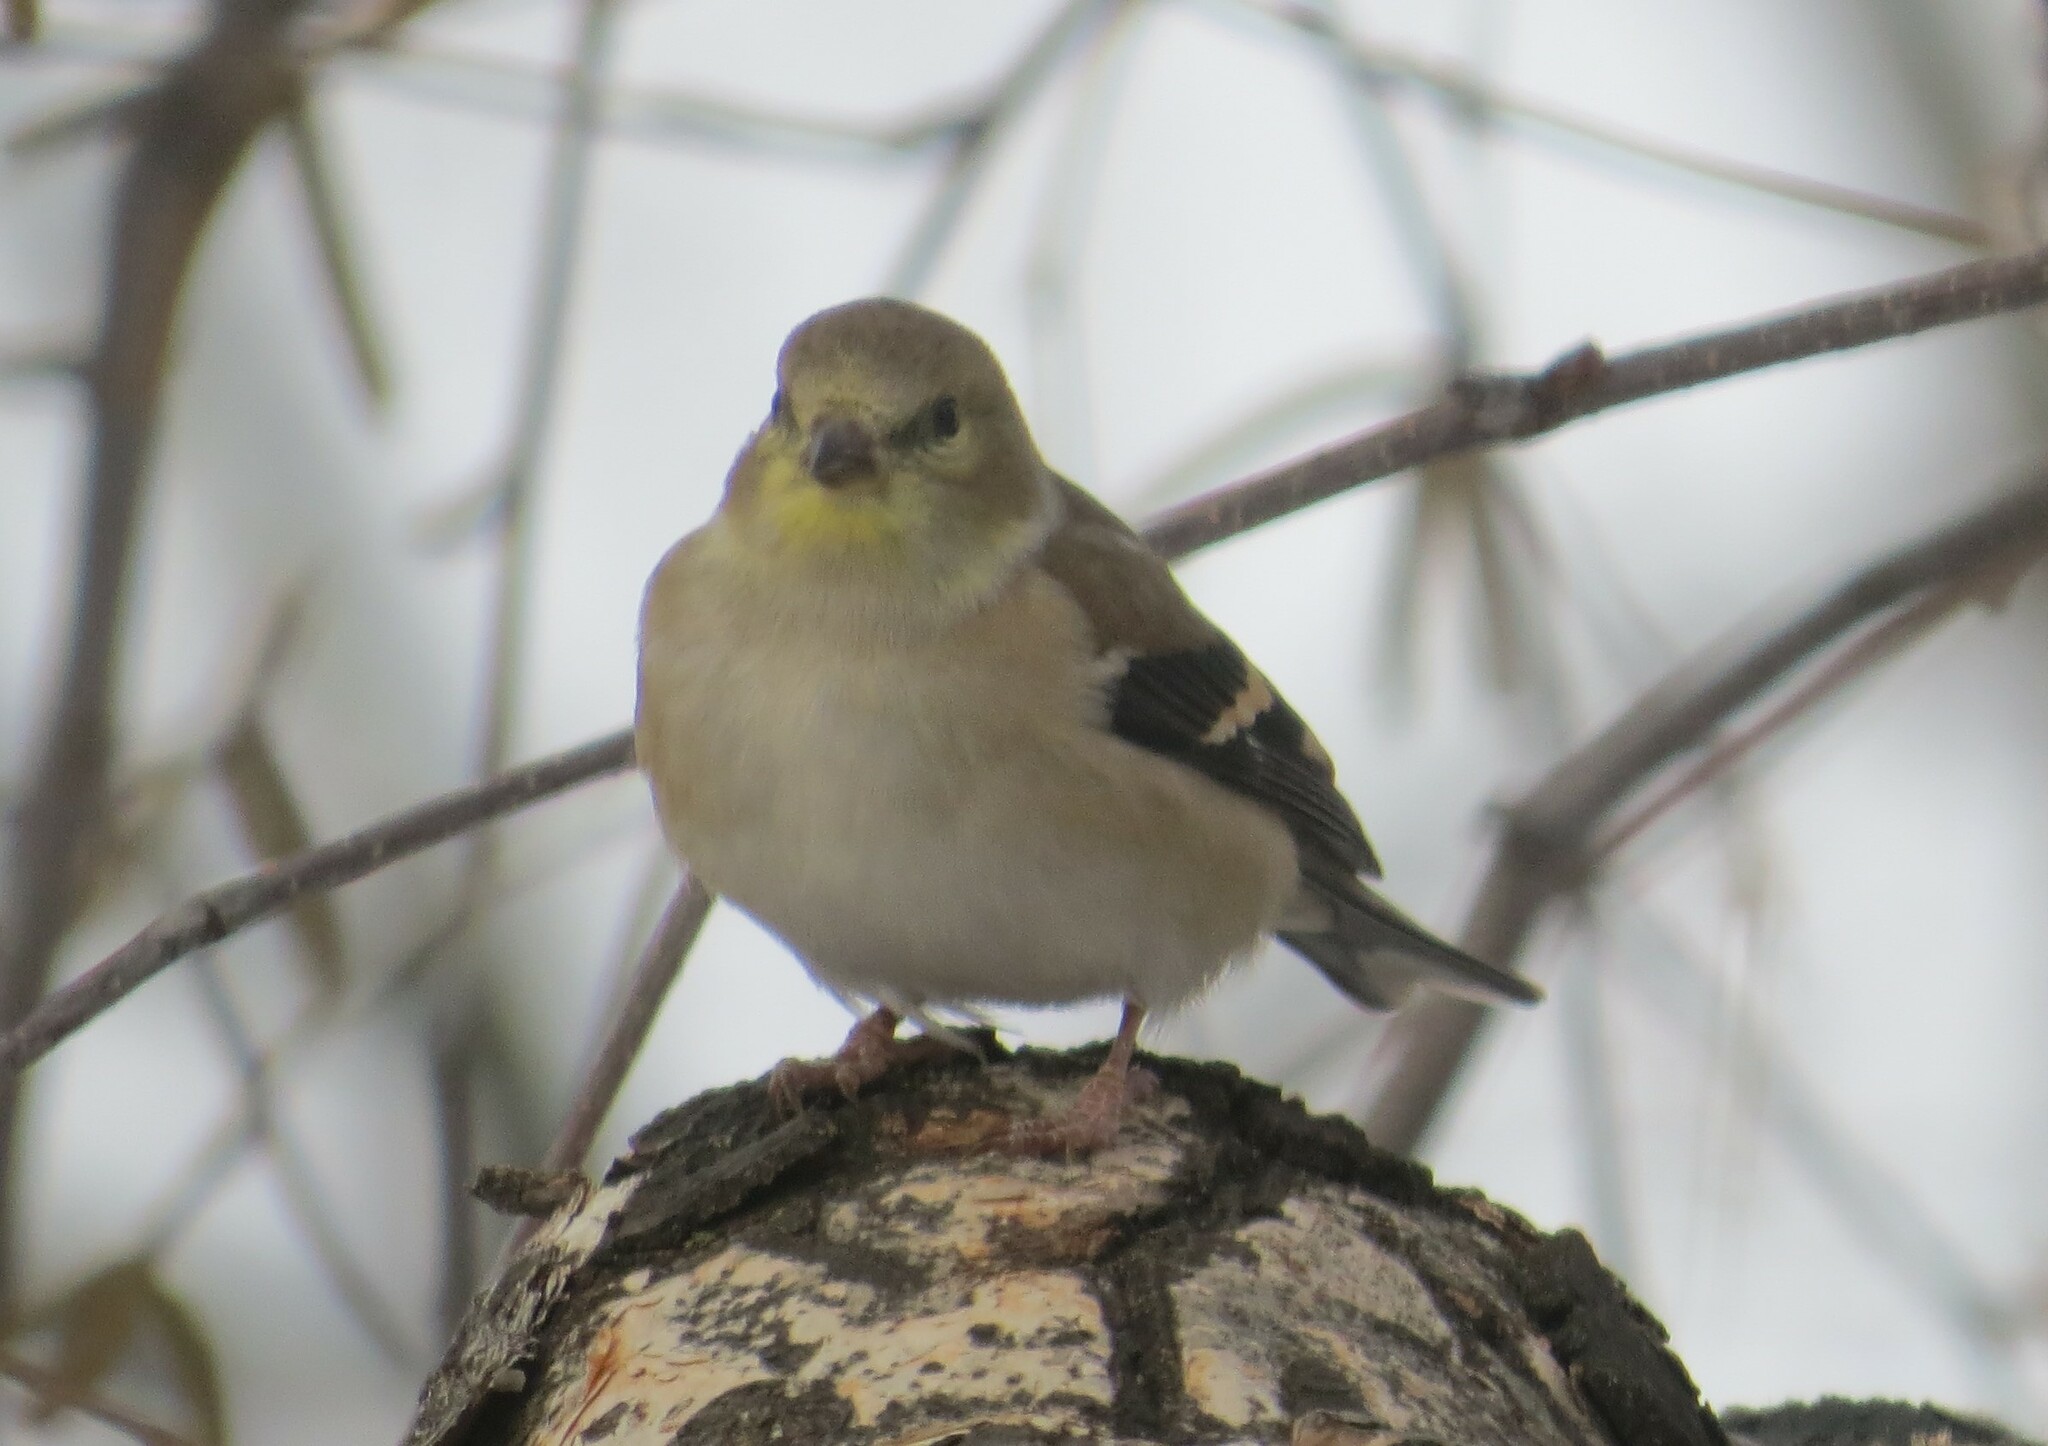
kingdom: Animalia
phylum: Chordata
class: Aves
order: Passeriformes
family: Fringillidae
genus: Spinus
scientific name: Spinus tristis
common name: American goldfinch
